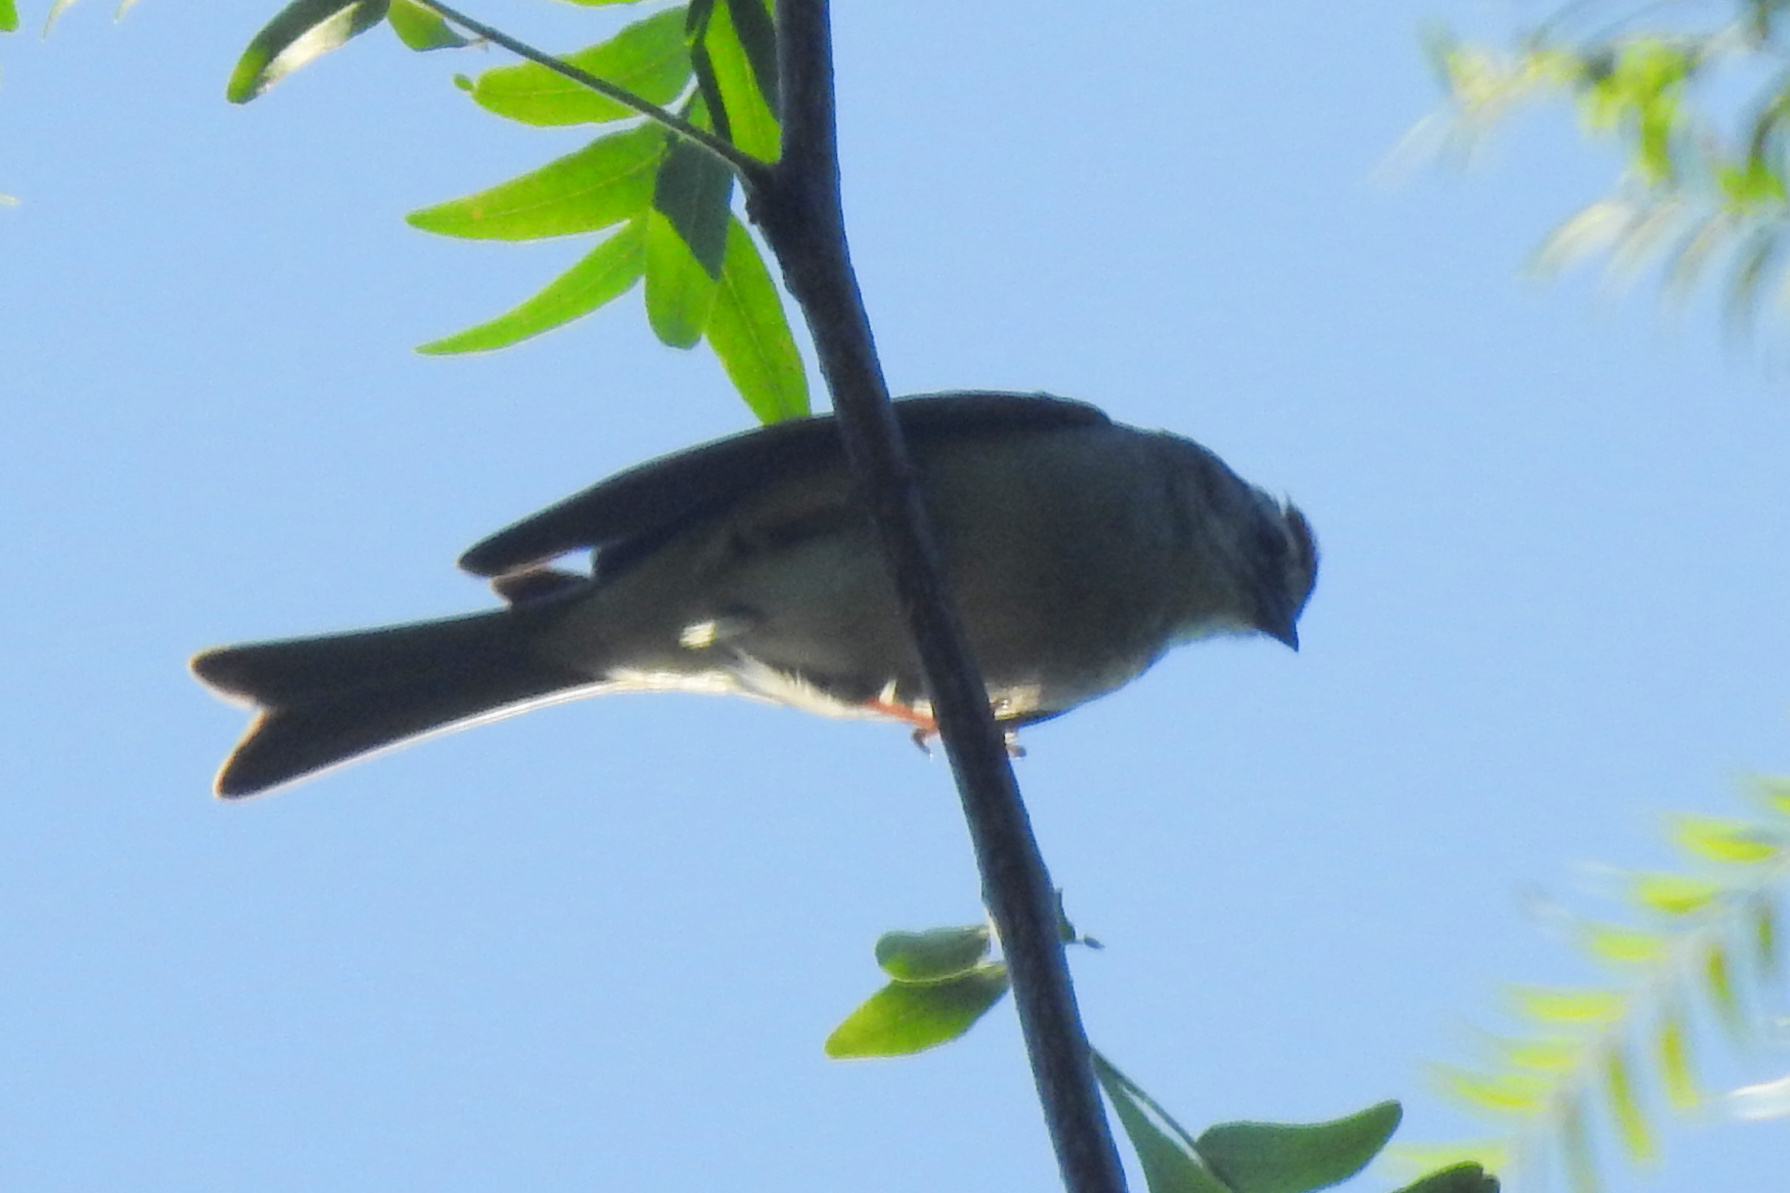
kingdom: Animalia
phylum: Chordata
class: Aves
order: Passeriformes
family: Passerellidae
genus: Spizella
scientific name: Spizella passerina
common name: Chipping sparrow
